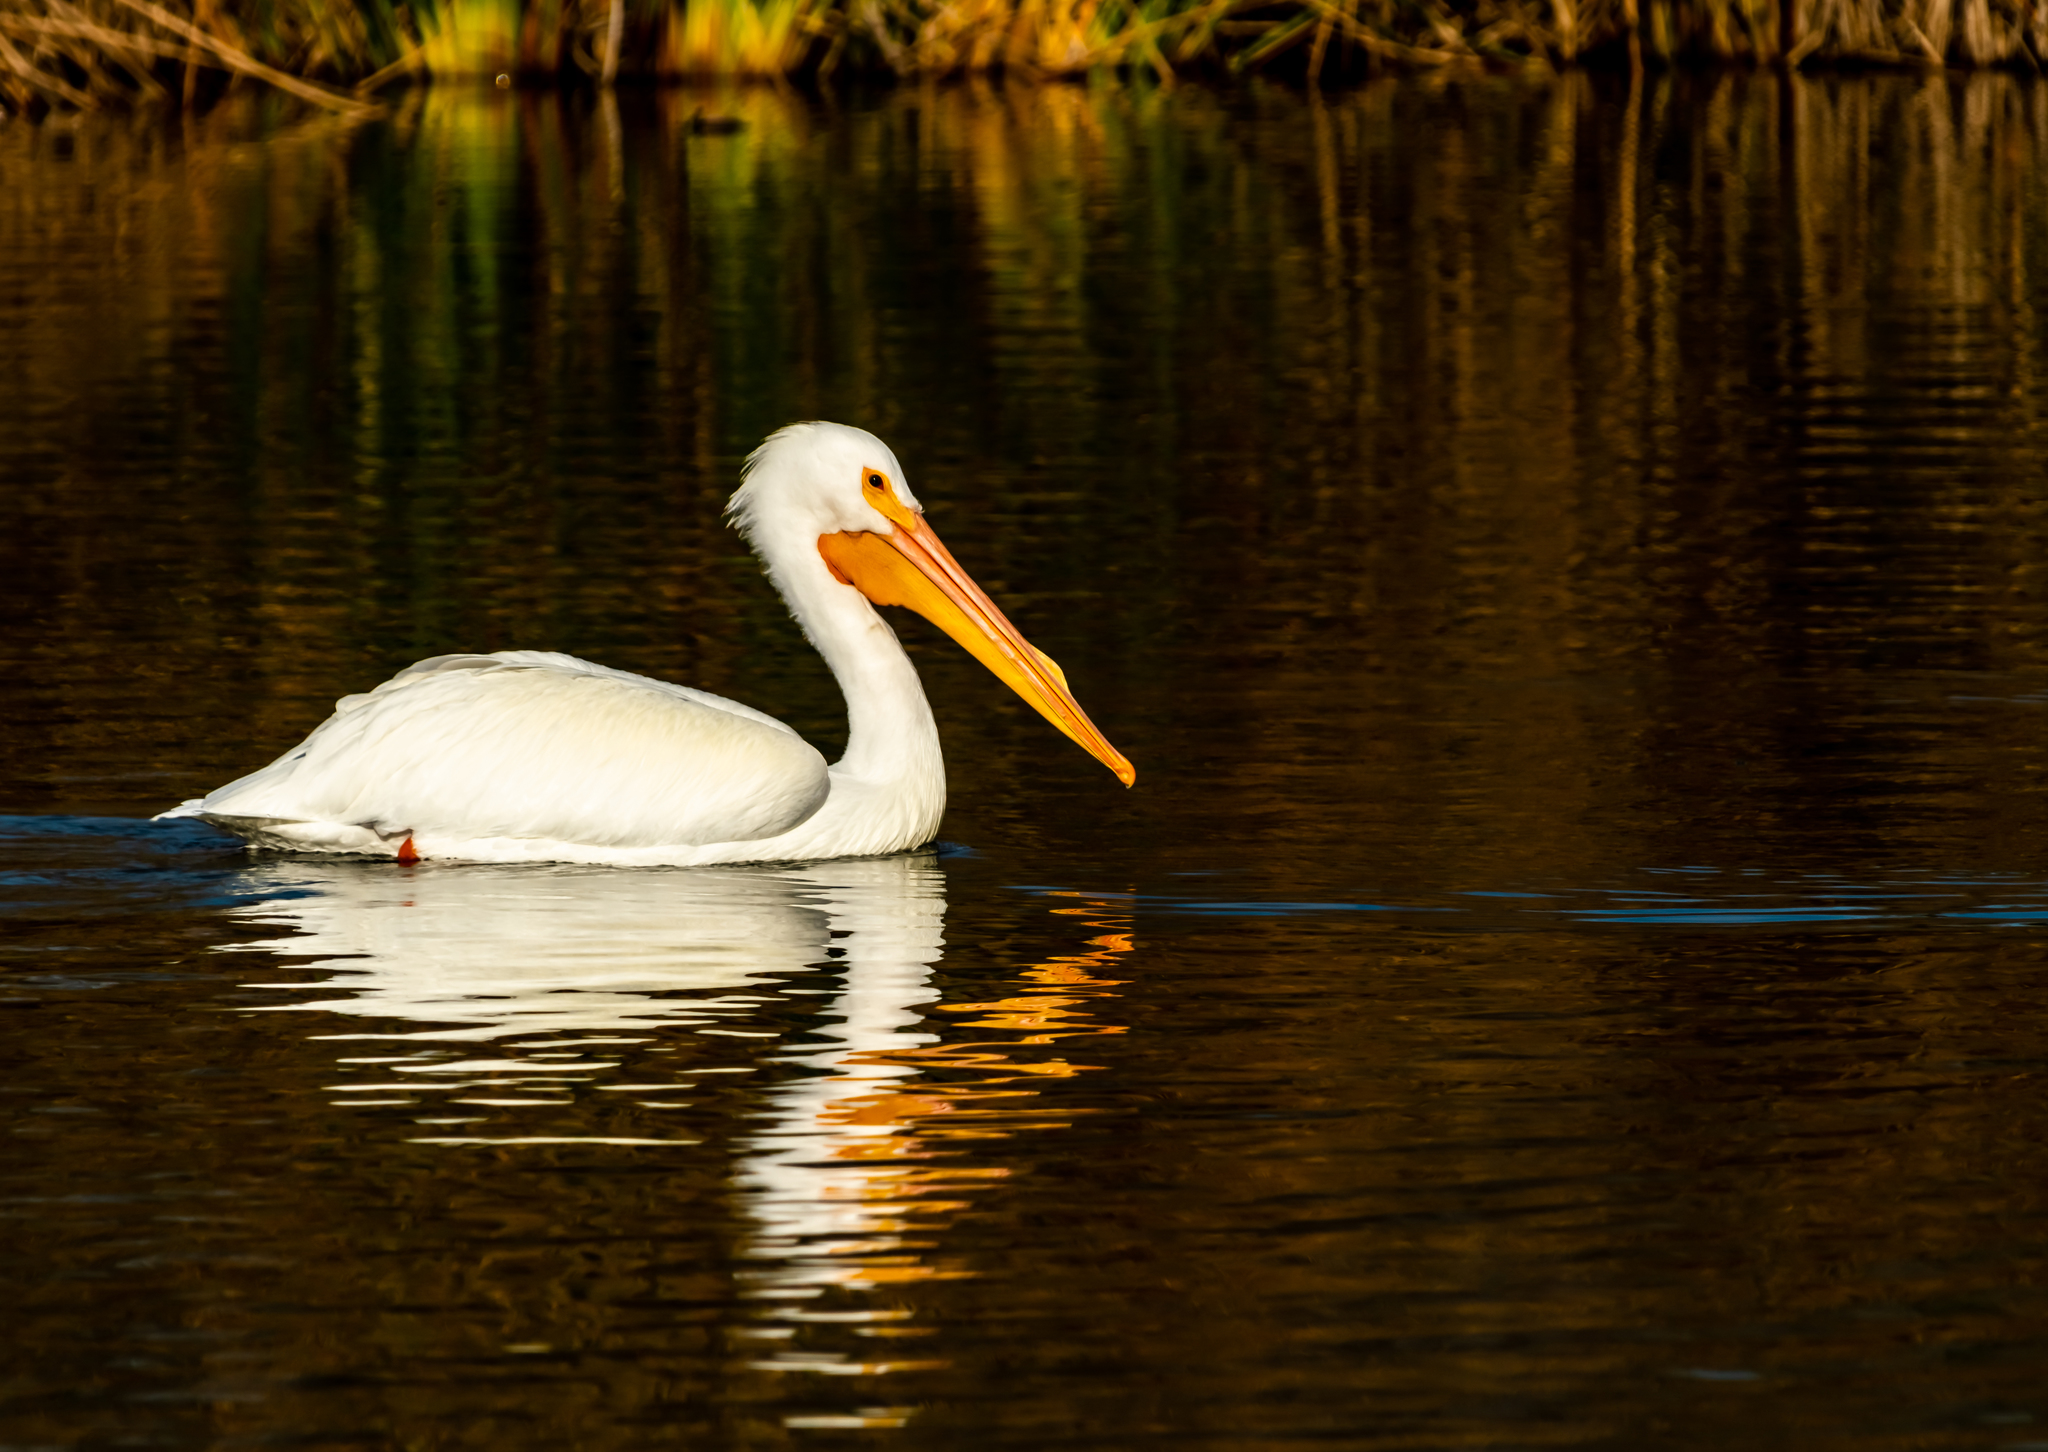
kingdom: Animalia
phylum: Chordata
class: Aves
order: Pelecaniformes
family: Pelecanidae
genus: Pelecanus
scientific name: Pelecanus erythrorhynchos
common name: American white pelican
